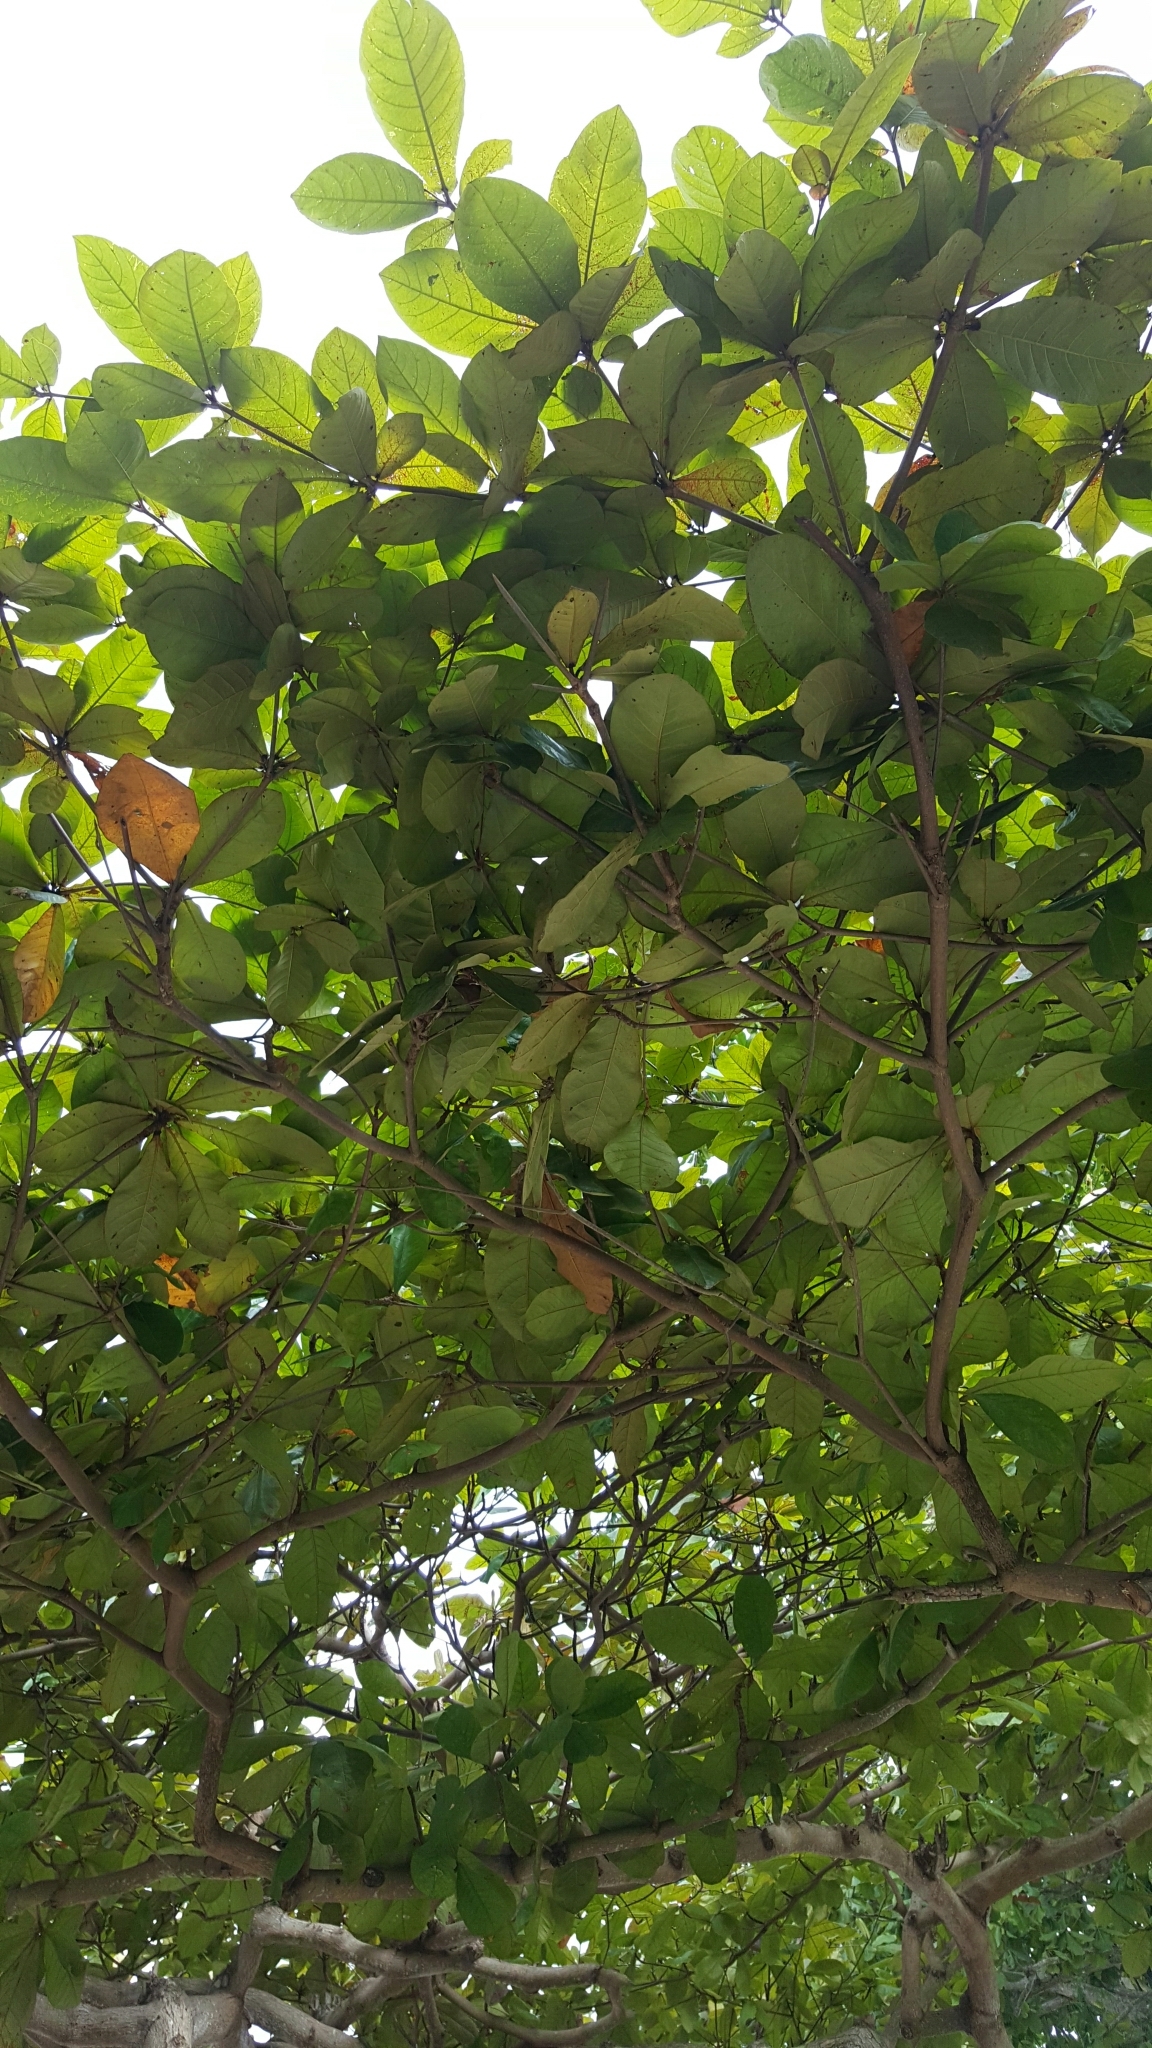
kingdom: Plantae
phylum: Tracheophyta
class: Magnoliopsida
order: Myrtales
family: Combretaceae
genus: Terminalia
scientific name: Terminalia catappa
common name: Tropical almond
